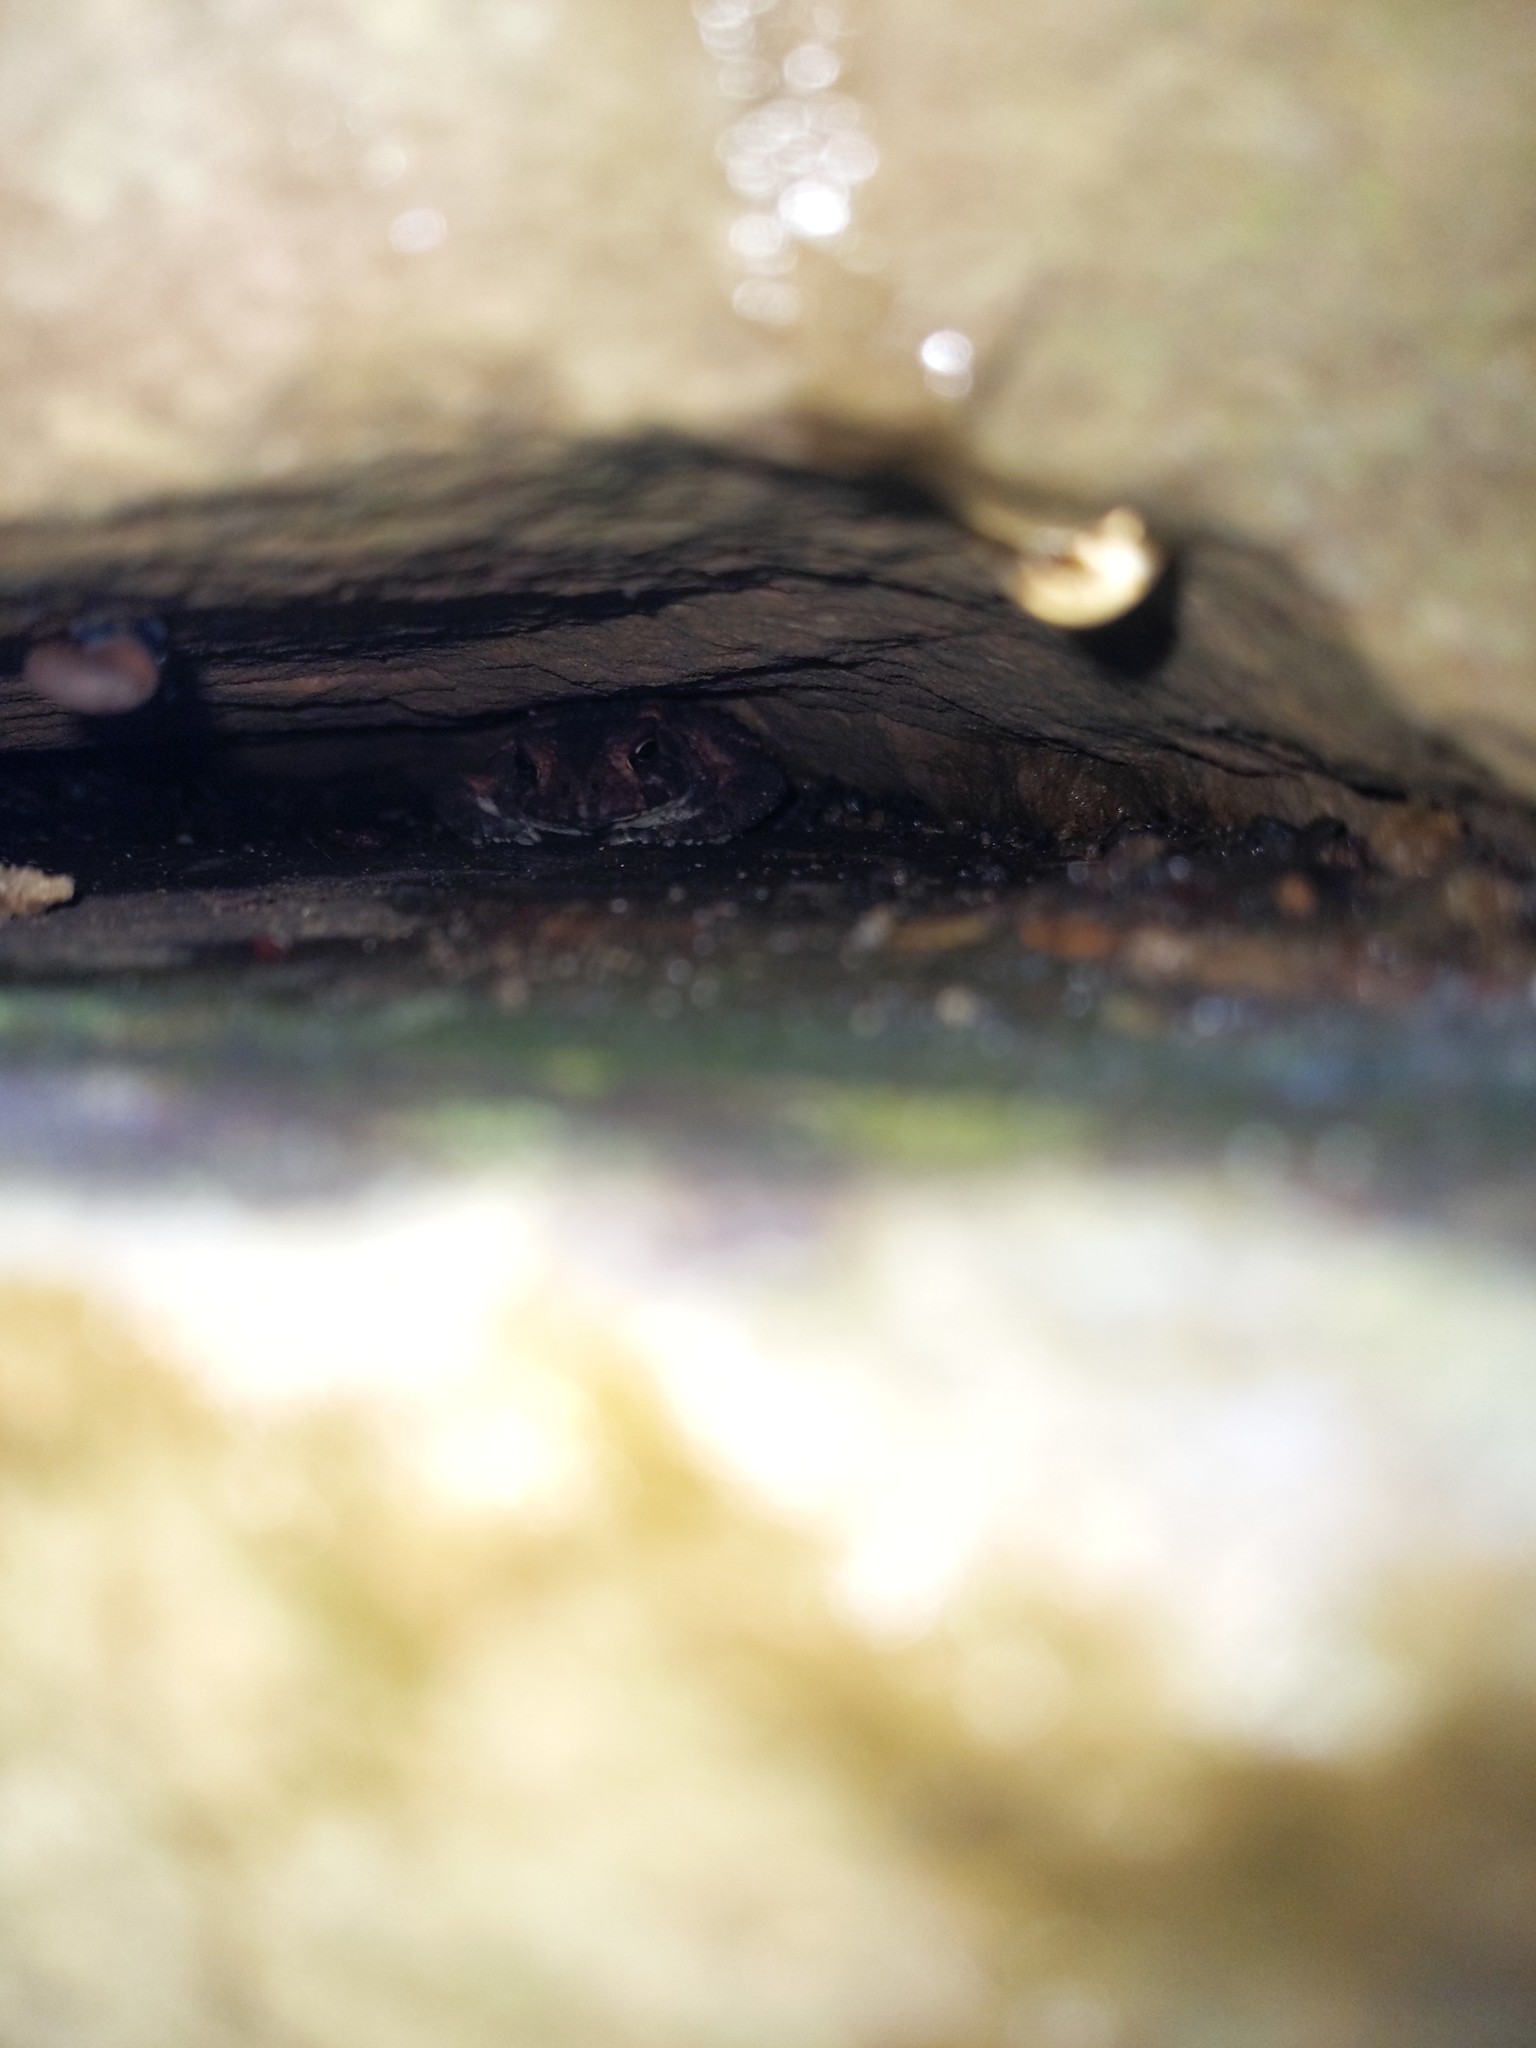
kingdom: Animalia
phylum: Chordata
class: Amphibia
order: Anura
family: Bufonidae
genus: Anaxyrus
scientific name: Anaxyrus americanus
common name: American toad
